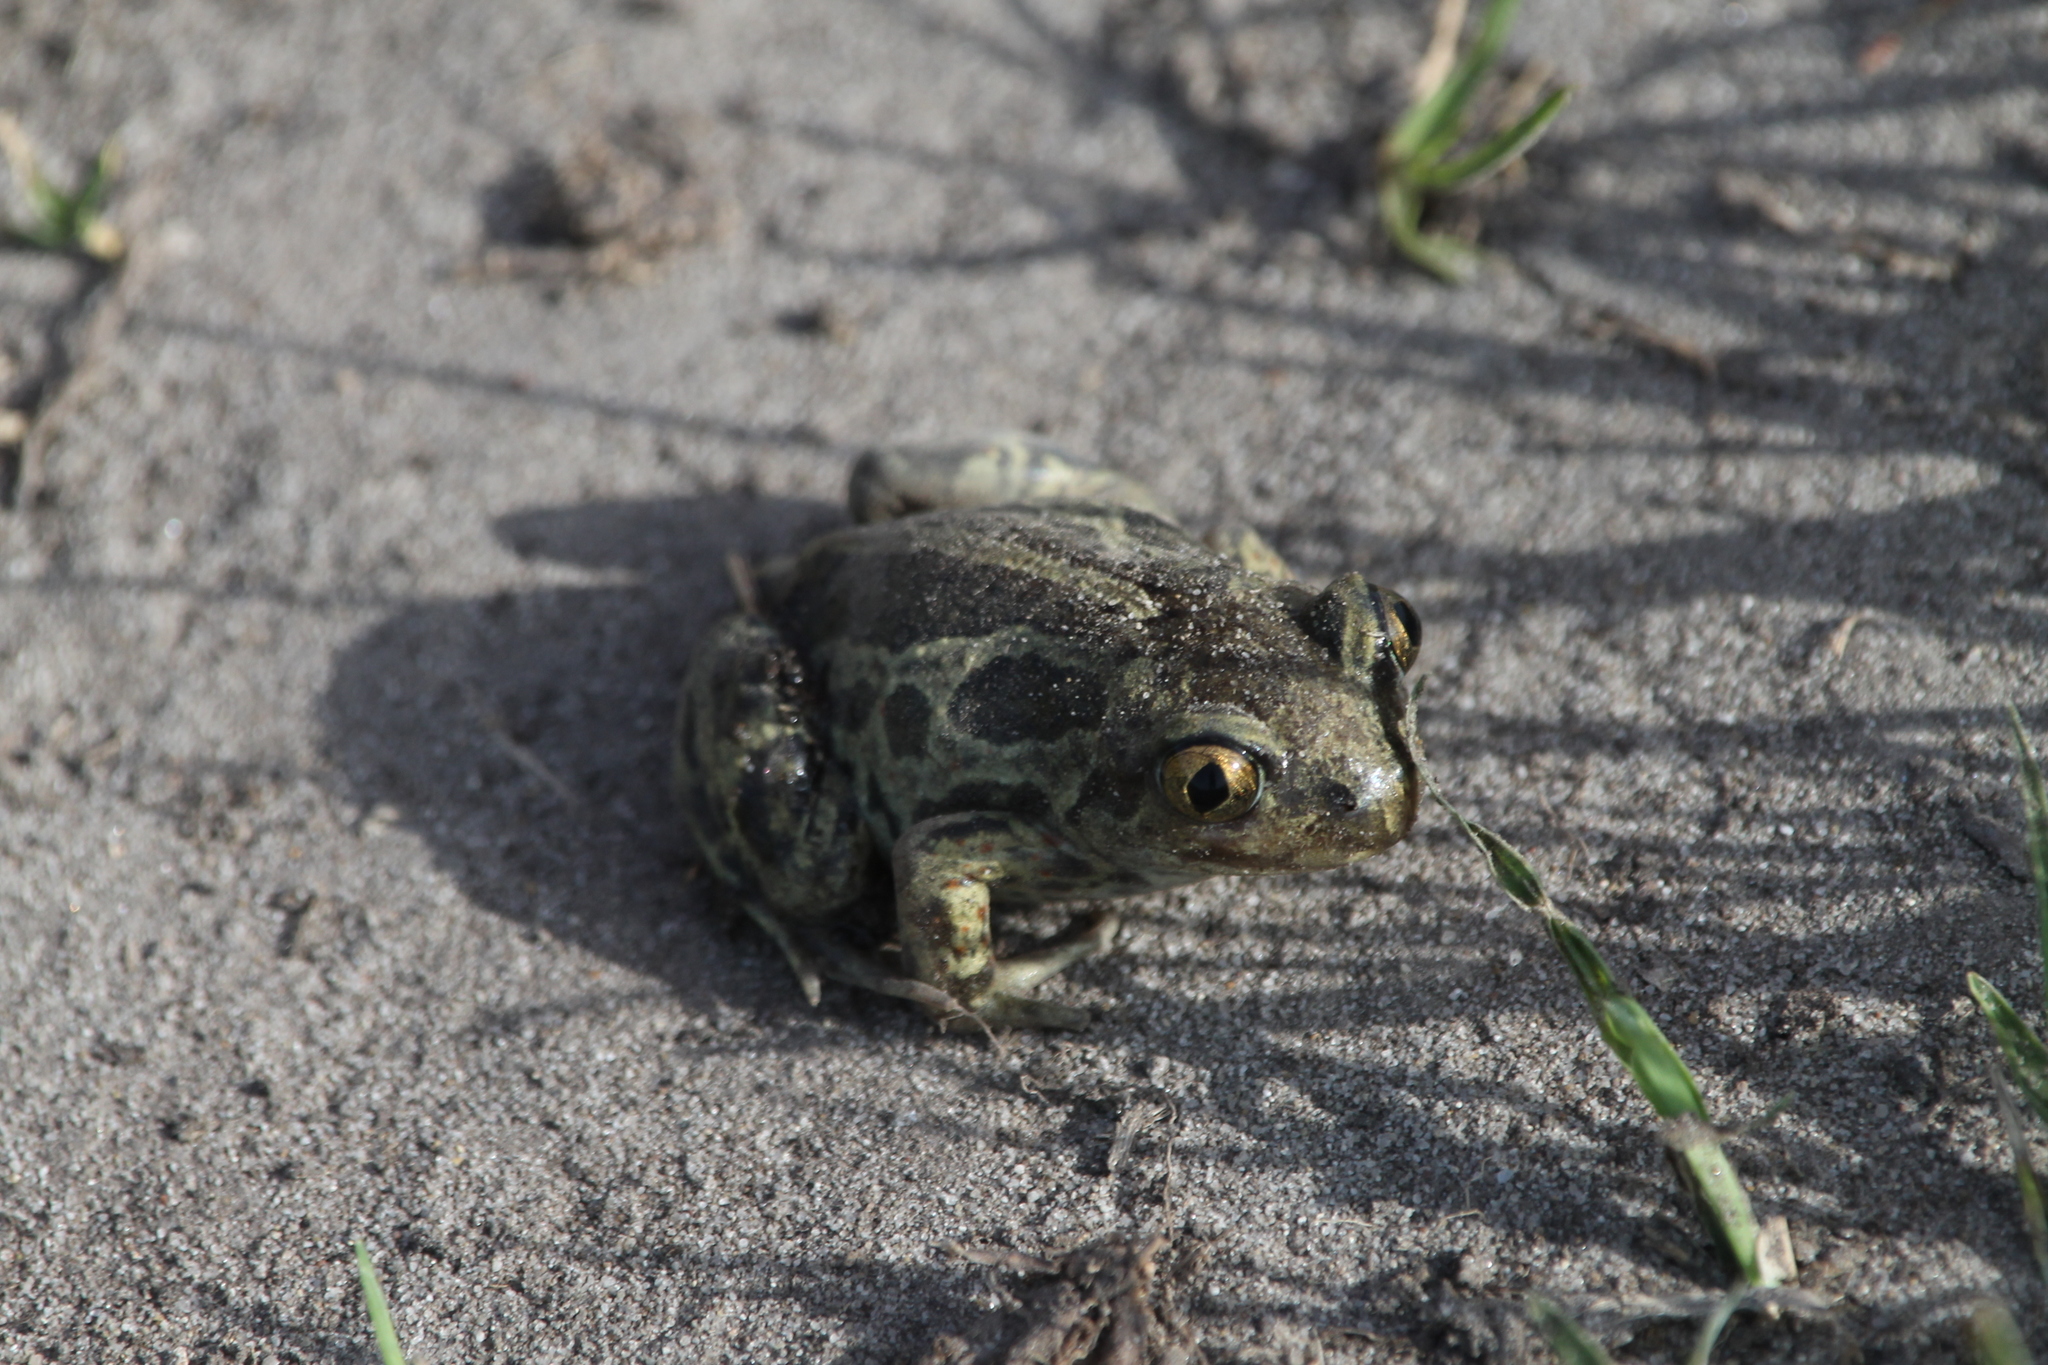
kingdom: Animalia
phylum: Chordata
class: Amphibia
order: Anura
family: Pelobatidae
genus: Pelobates
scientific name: Pelobates fuscus
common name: Common eurasian spadefoot toad
